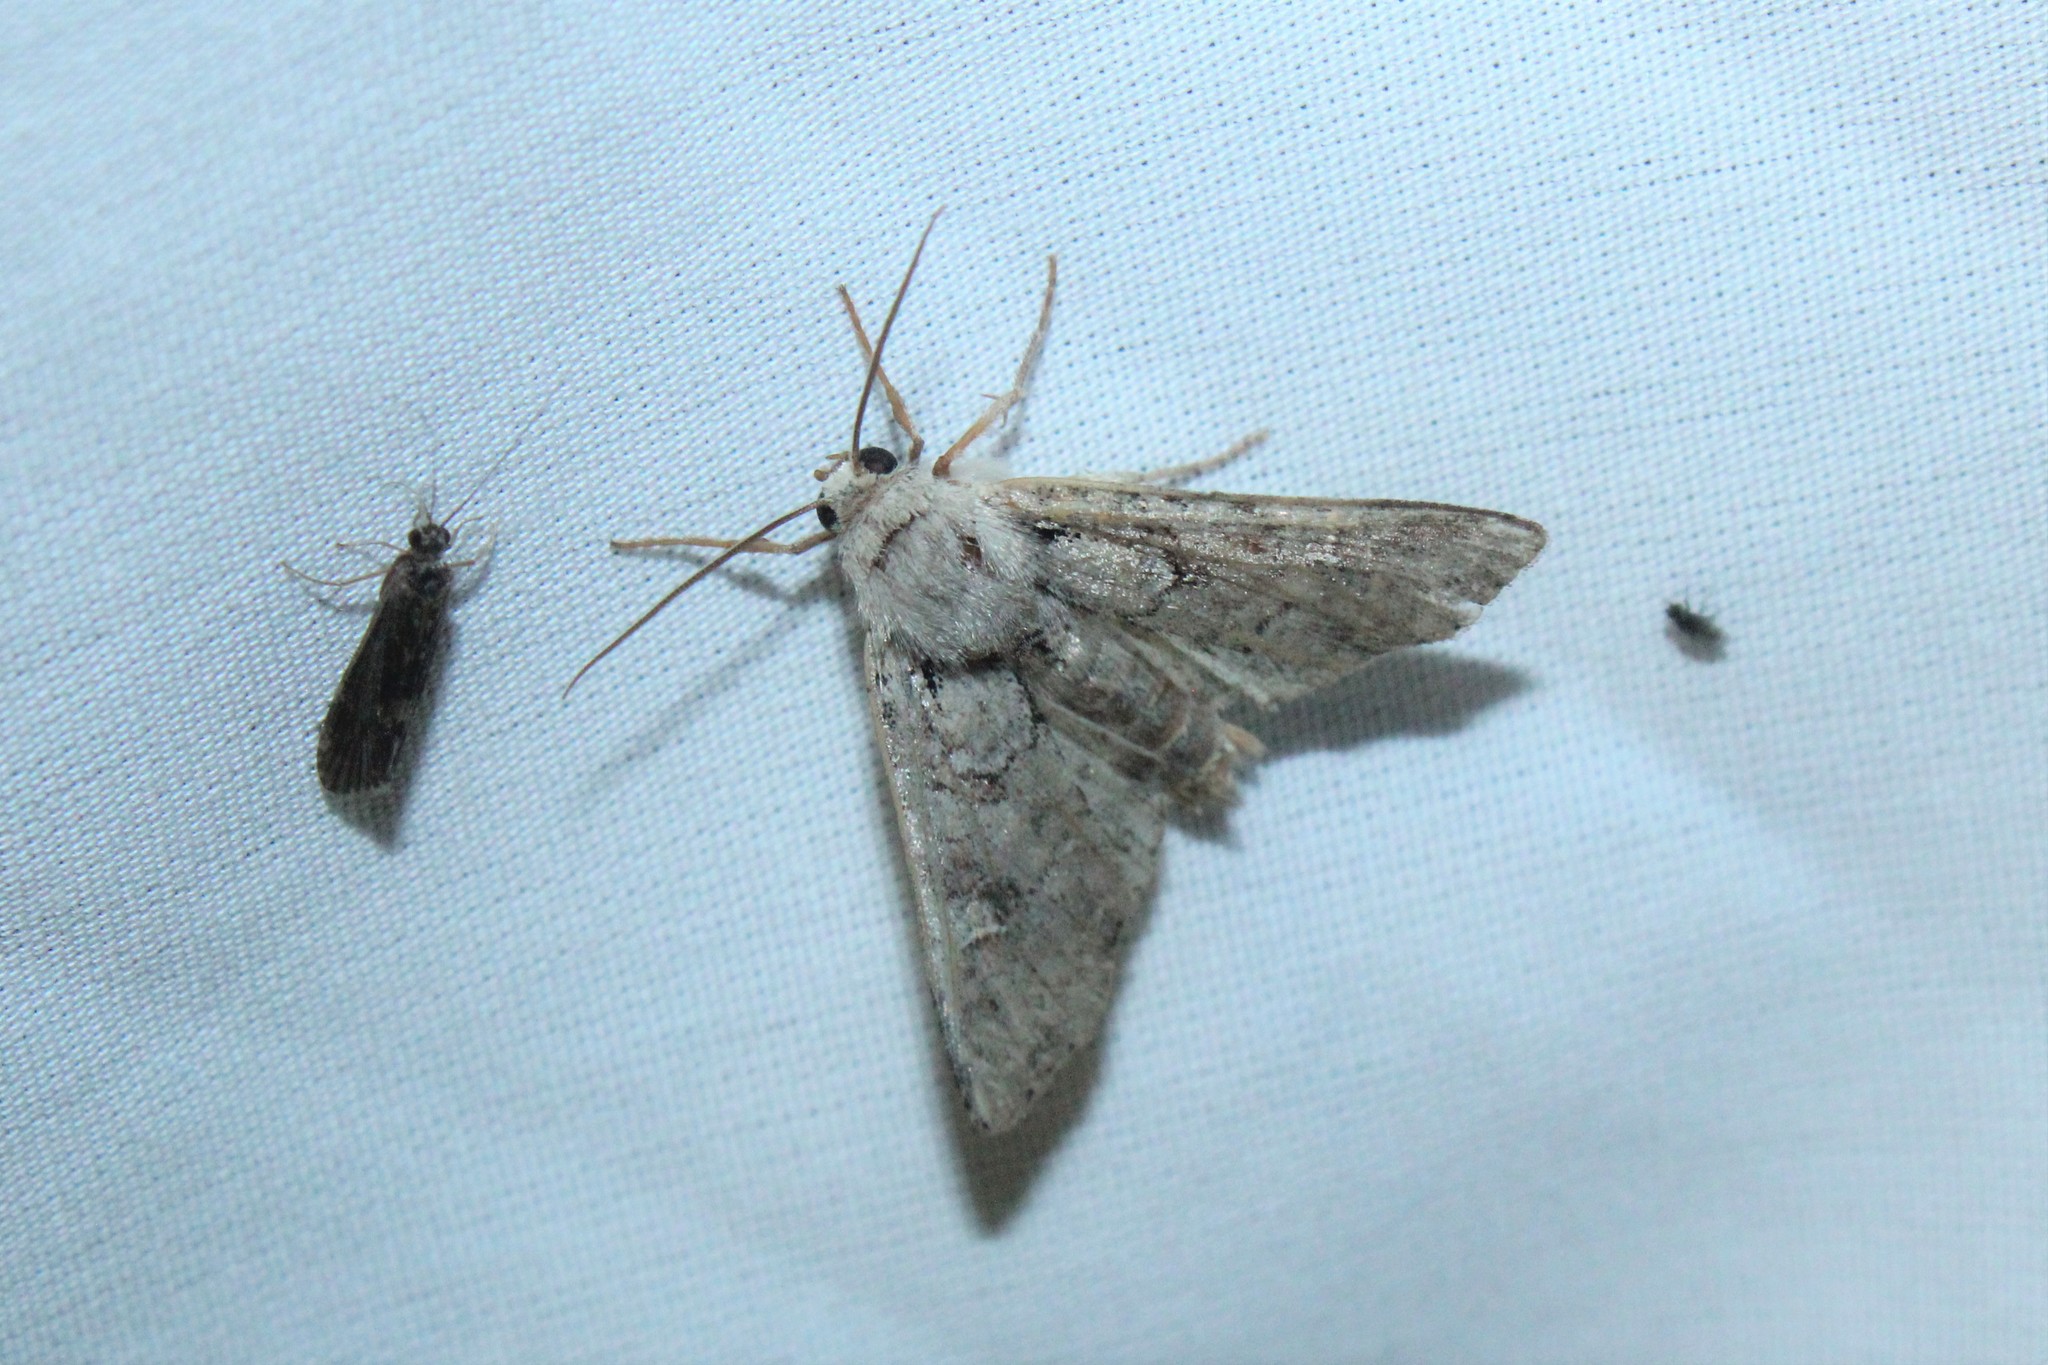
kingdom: Animalia
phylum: Arthropoda
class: Insecta
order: Lepidoptera
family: Noctuidae
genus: Apamea
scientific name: Apamea sordens
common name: Rustic shoulder-knot
